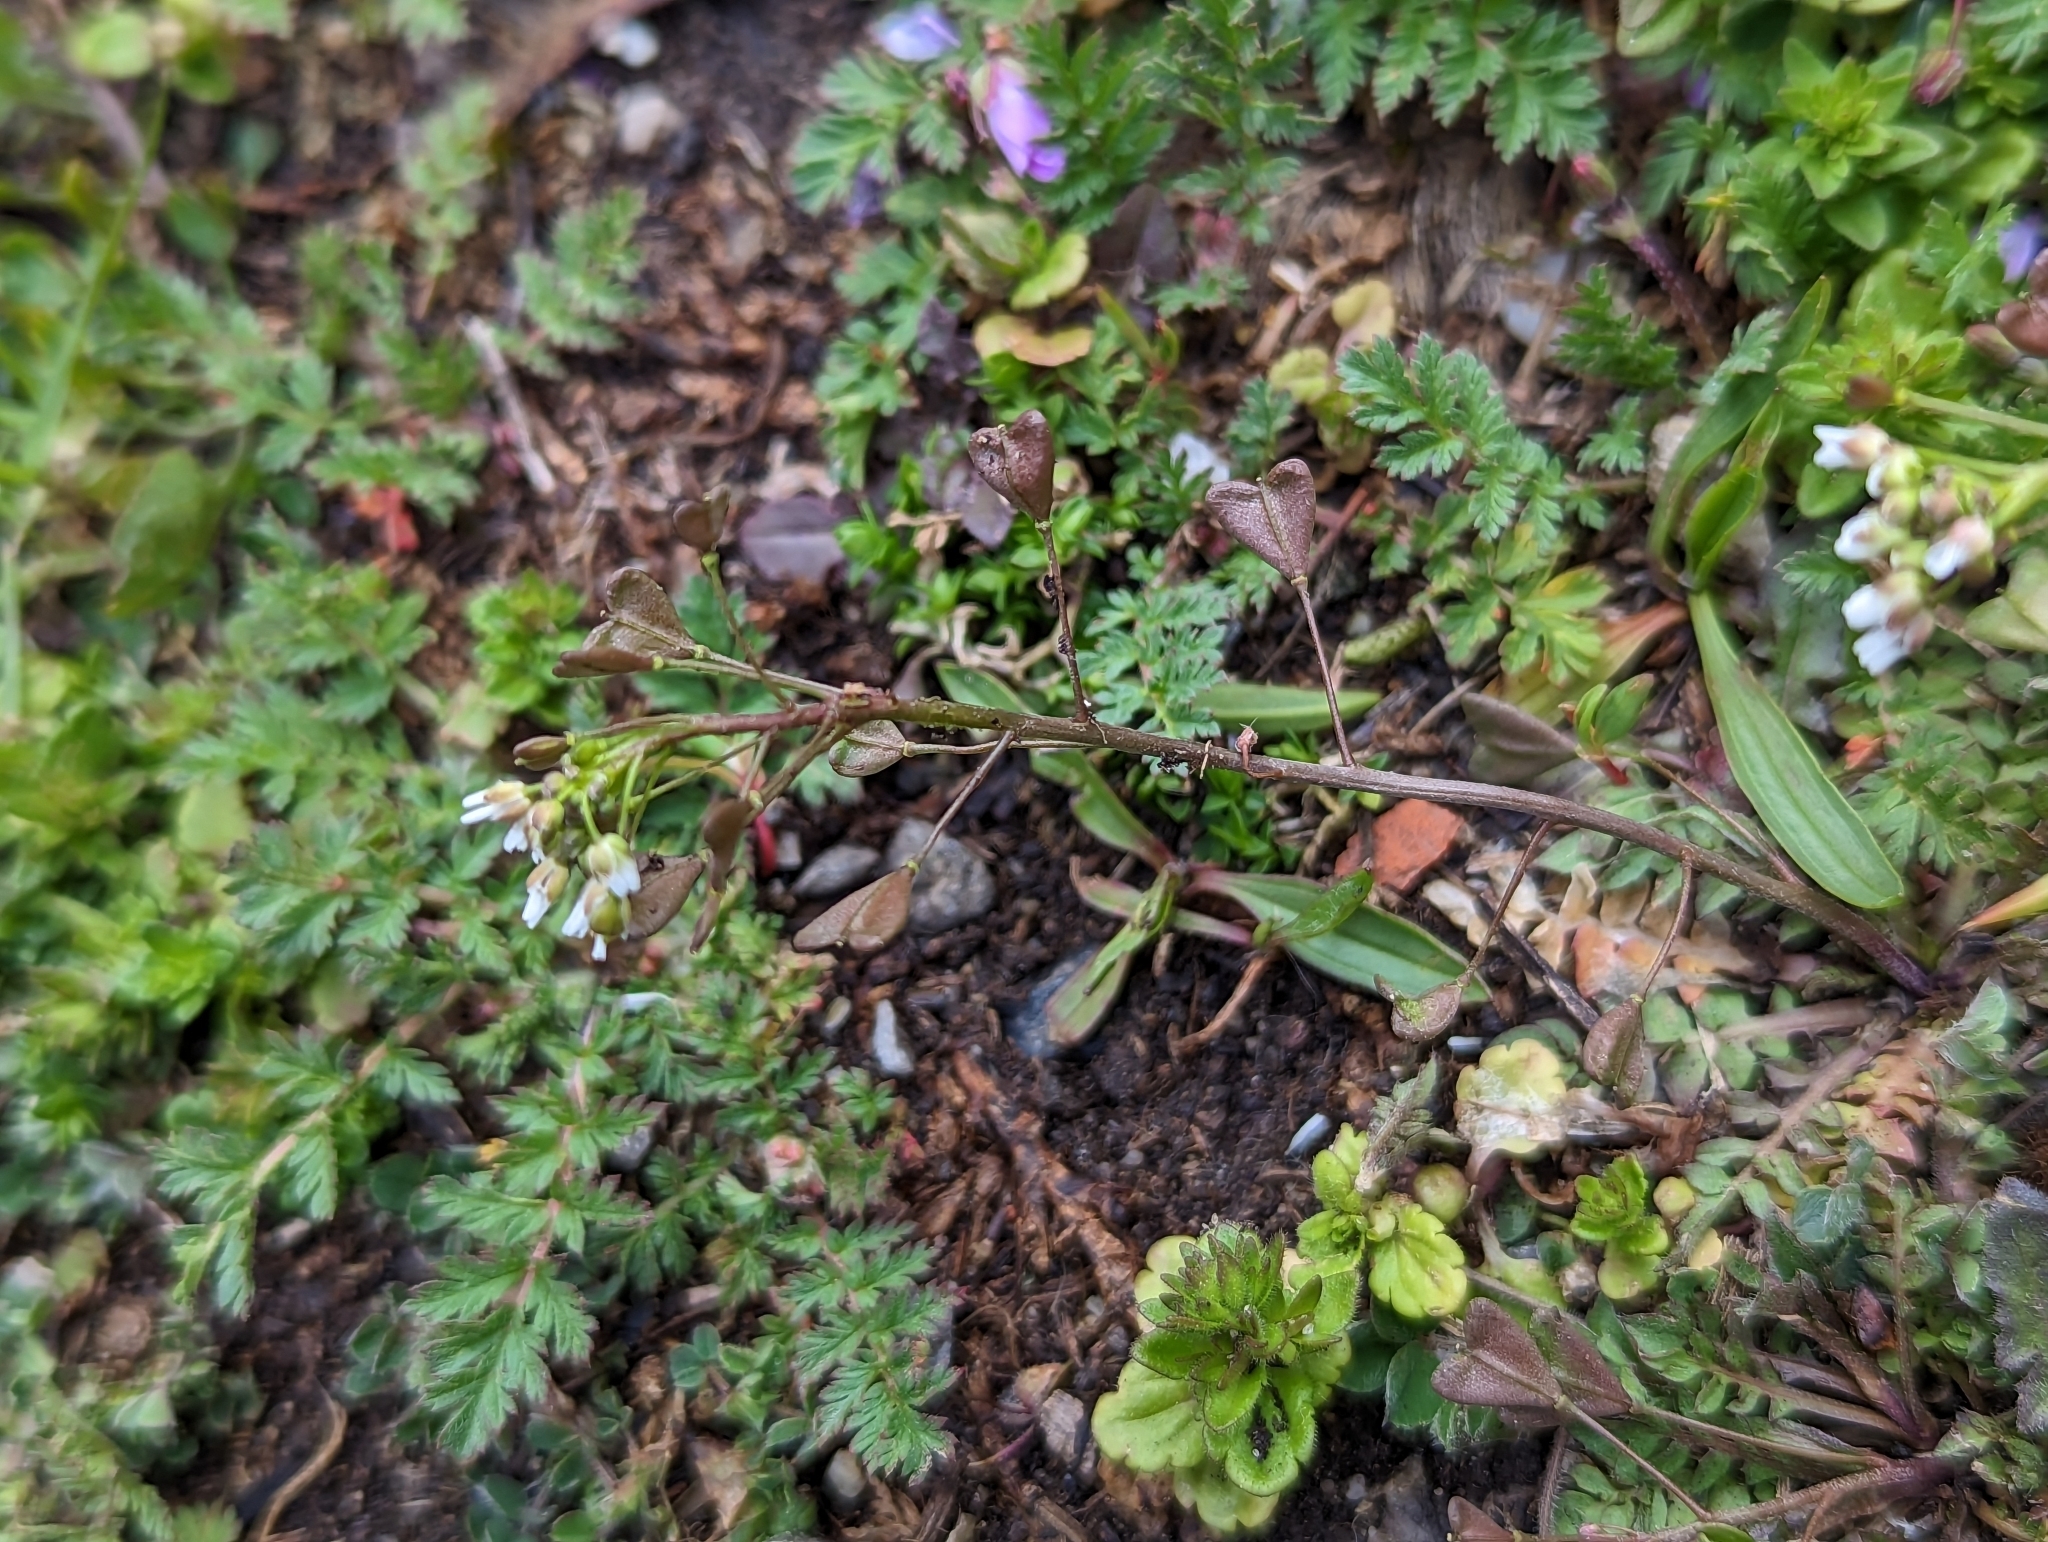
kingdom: Plantae
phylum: Tracheophyta
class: Magnoliopsida
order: Brassicales
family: Brassicaceae
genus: Capsella
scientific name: Capsella bursa-pastoris
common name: Shepherd's purse
